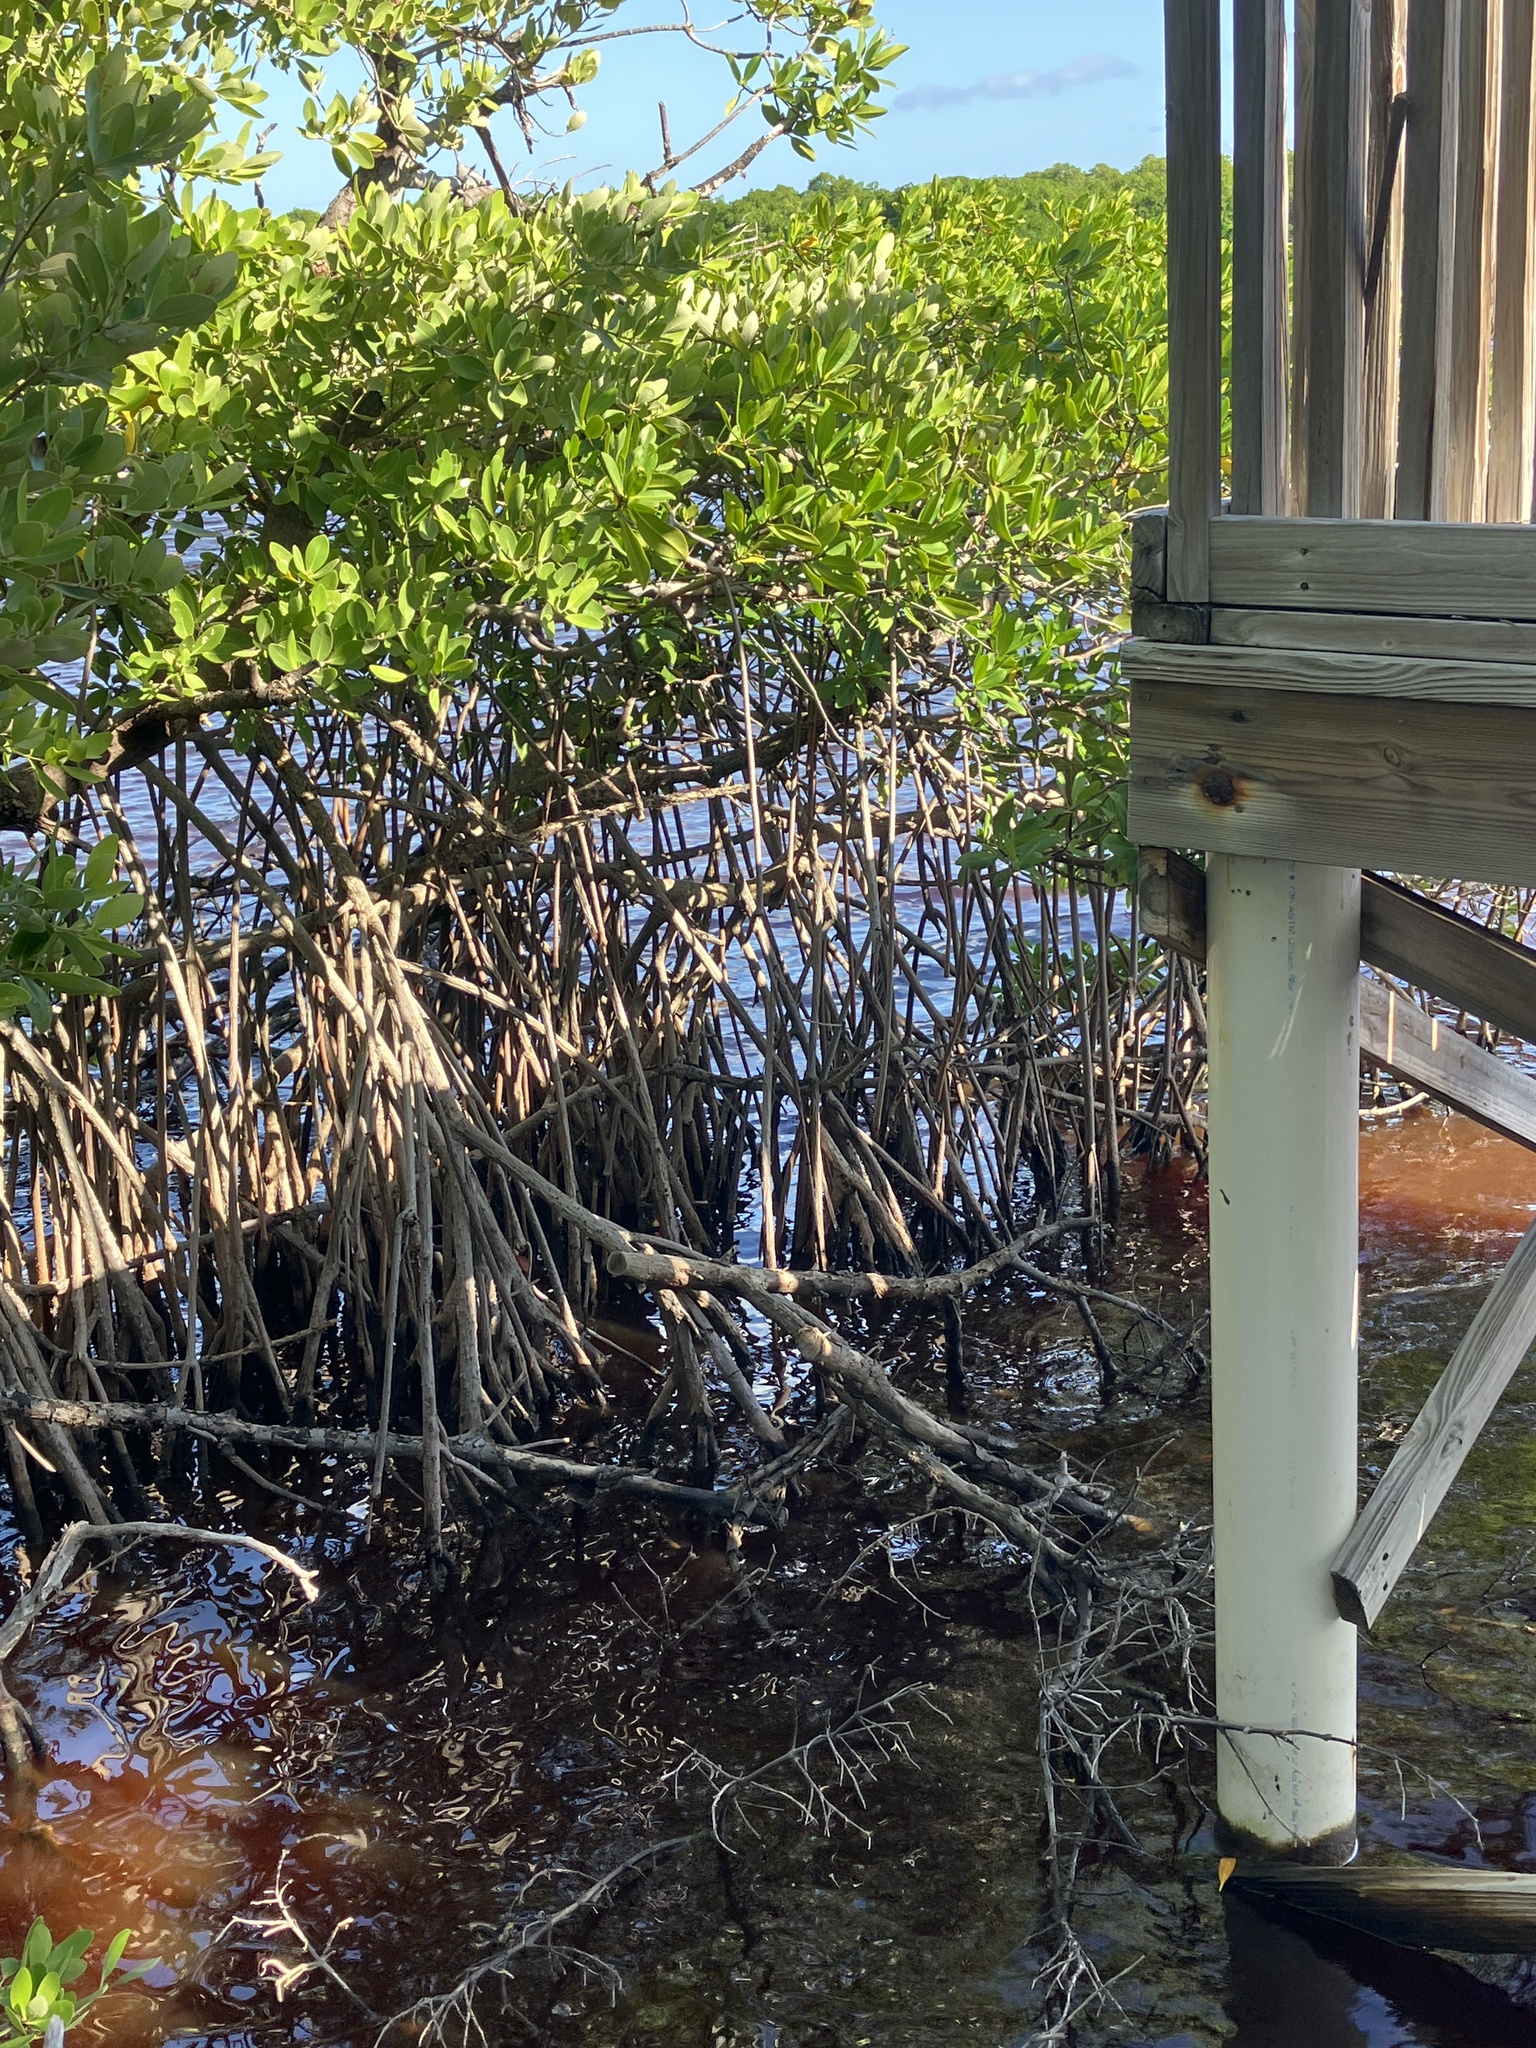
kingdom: Plantae
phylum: Tracheophyta
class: Magnoliopsida
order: Malpighiales
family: Rhizophoraceae
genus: Rhizophora
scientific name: Rhizophora mangle
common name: Red mangrove
